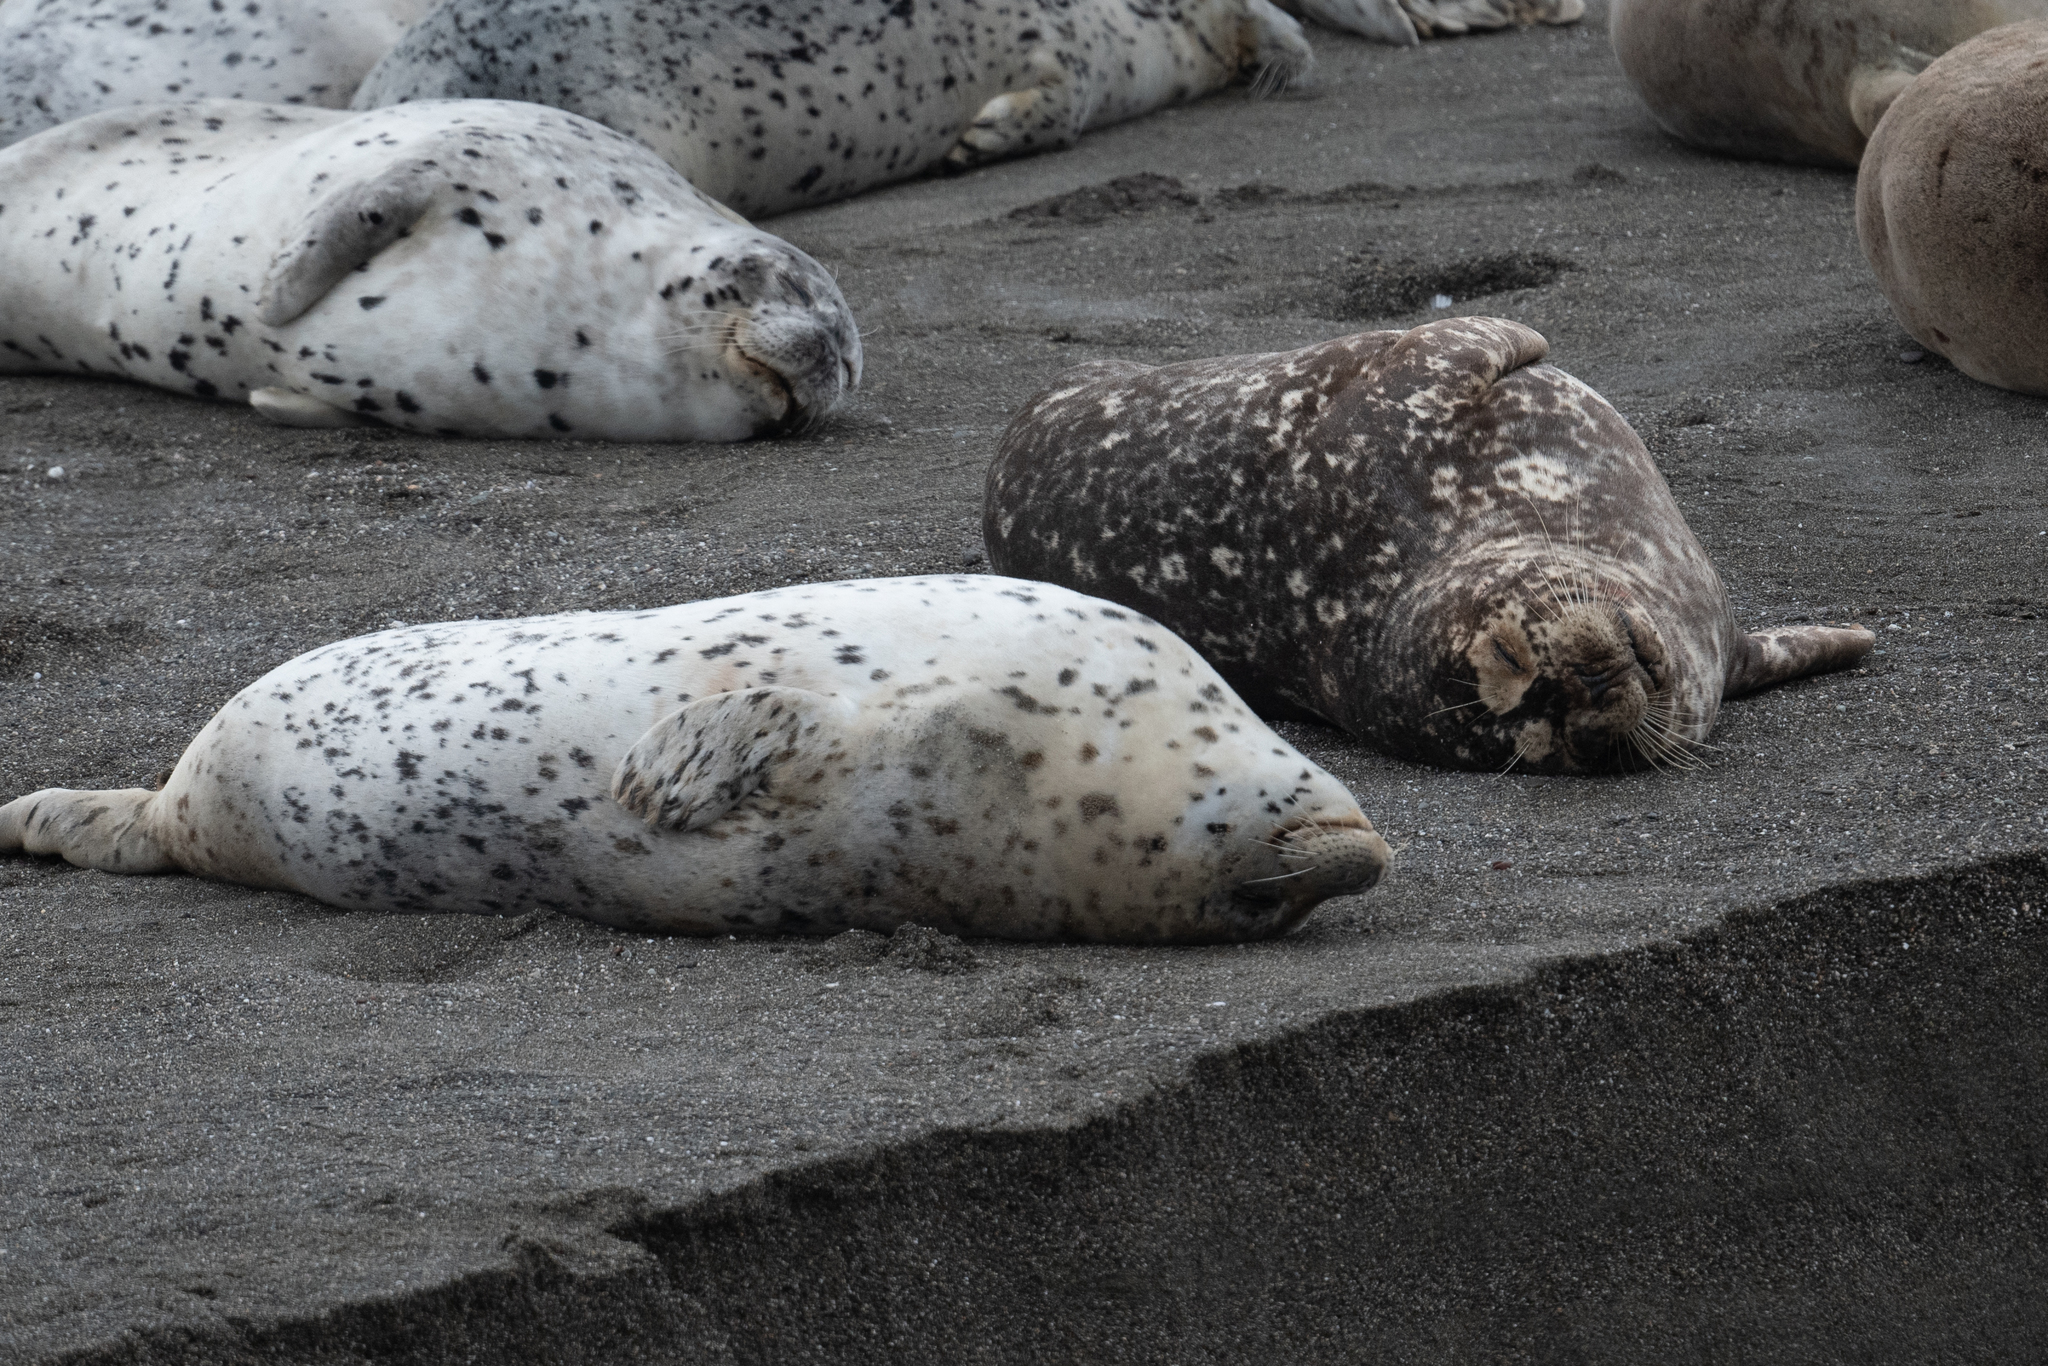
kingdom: Animalia
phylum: Chordata
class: Mammalia
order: Carnivora
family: Phocidae
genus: Phoca
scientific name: Phoca vitulina
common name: Harbor seal
